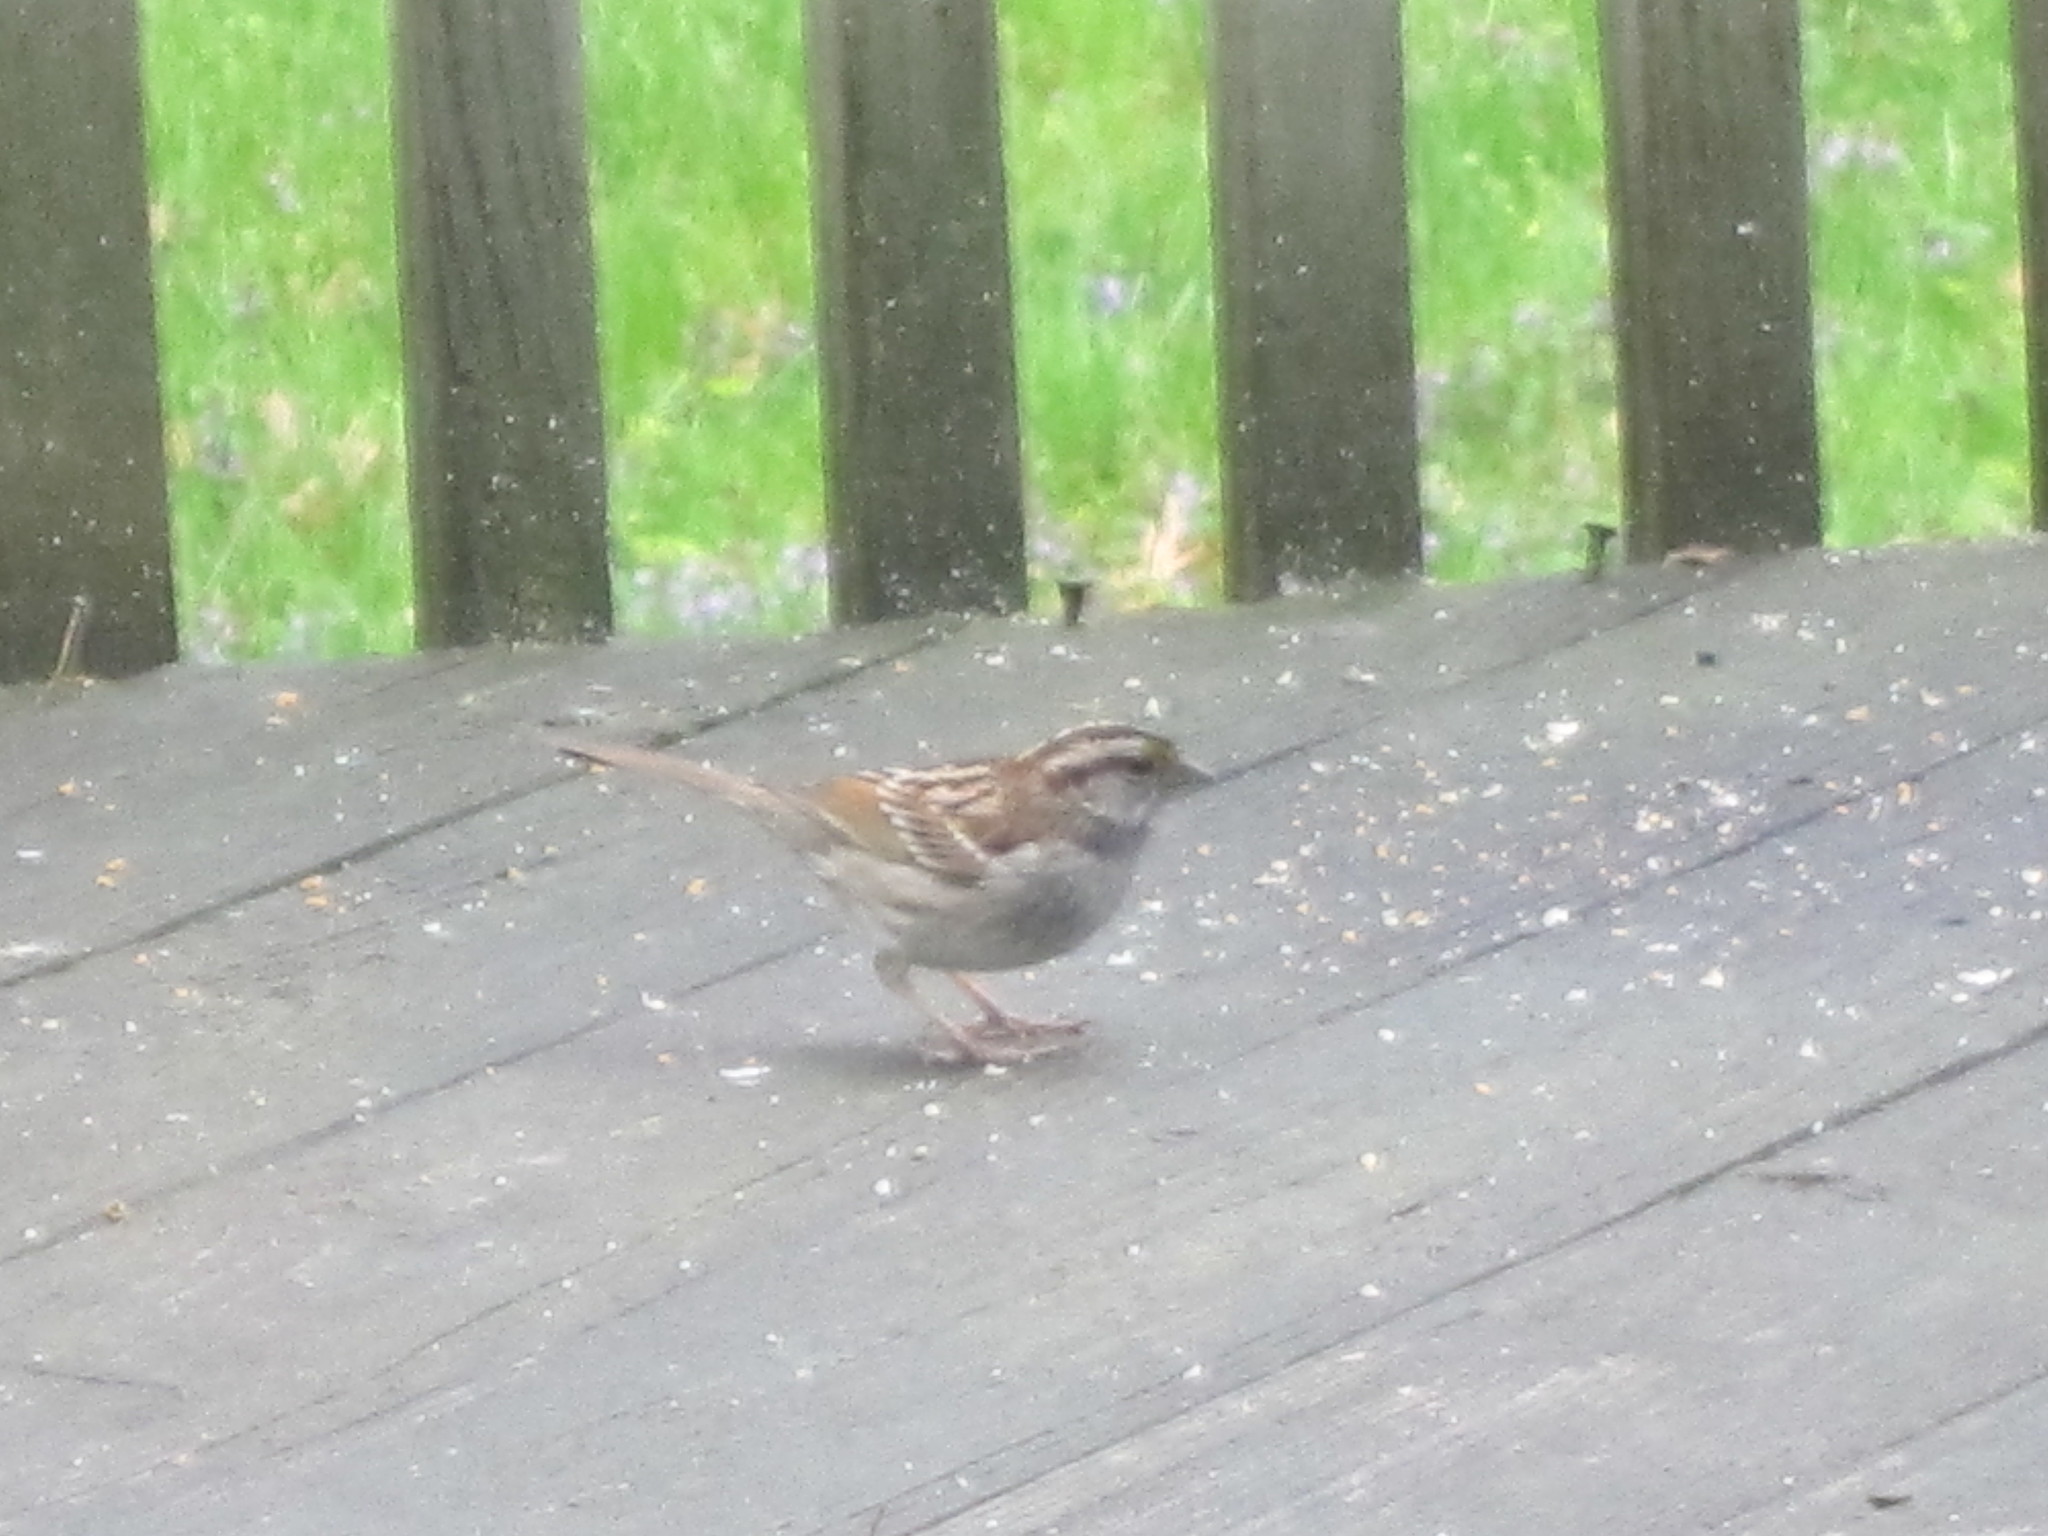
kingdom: Animalia
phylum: Chordata
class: Aves
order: Passeriformes
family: Passerellidae
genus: Zonotrichia
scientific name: Zonotrichia albicollis
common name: White-throated sparrow
